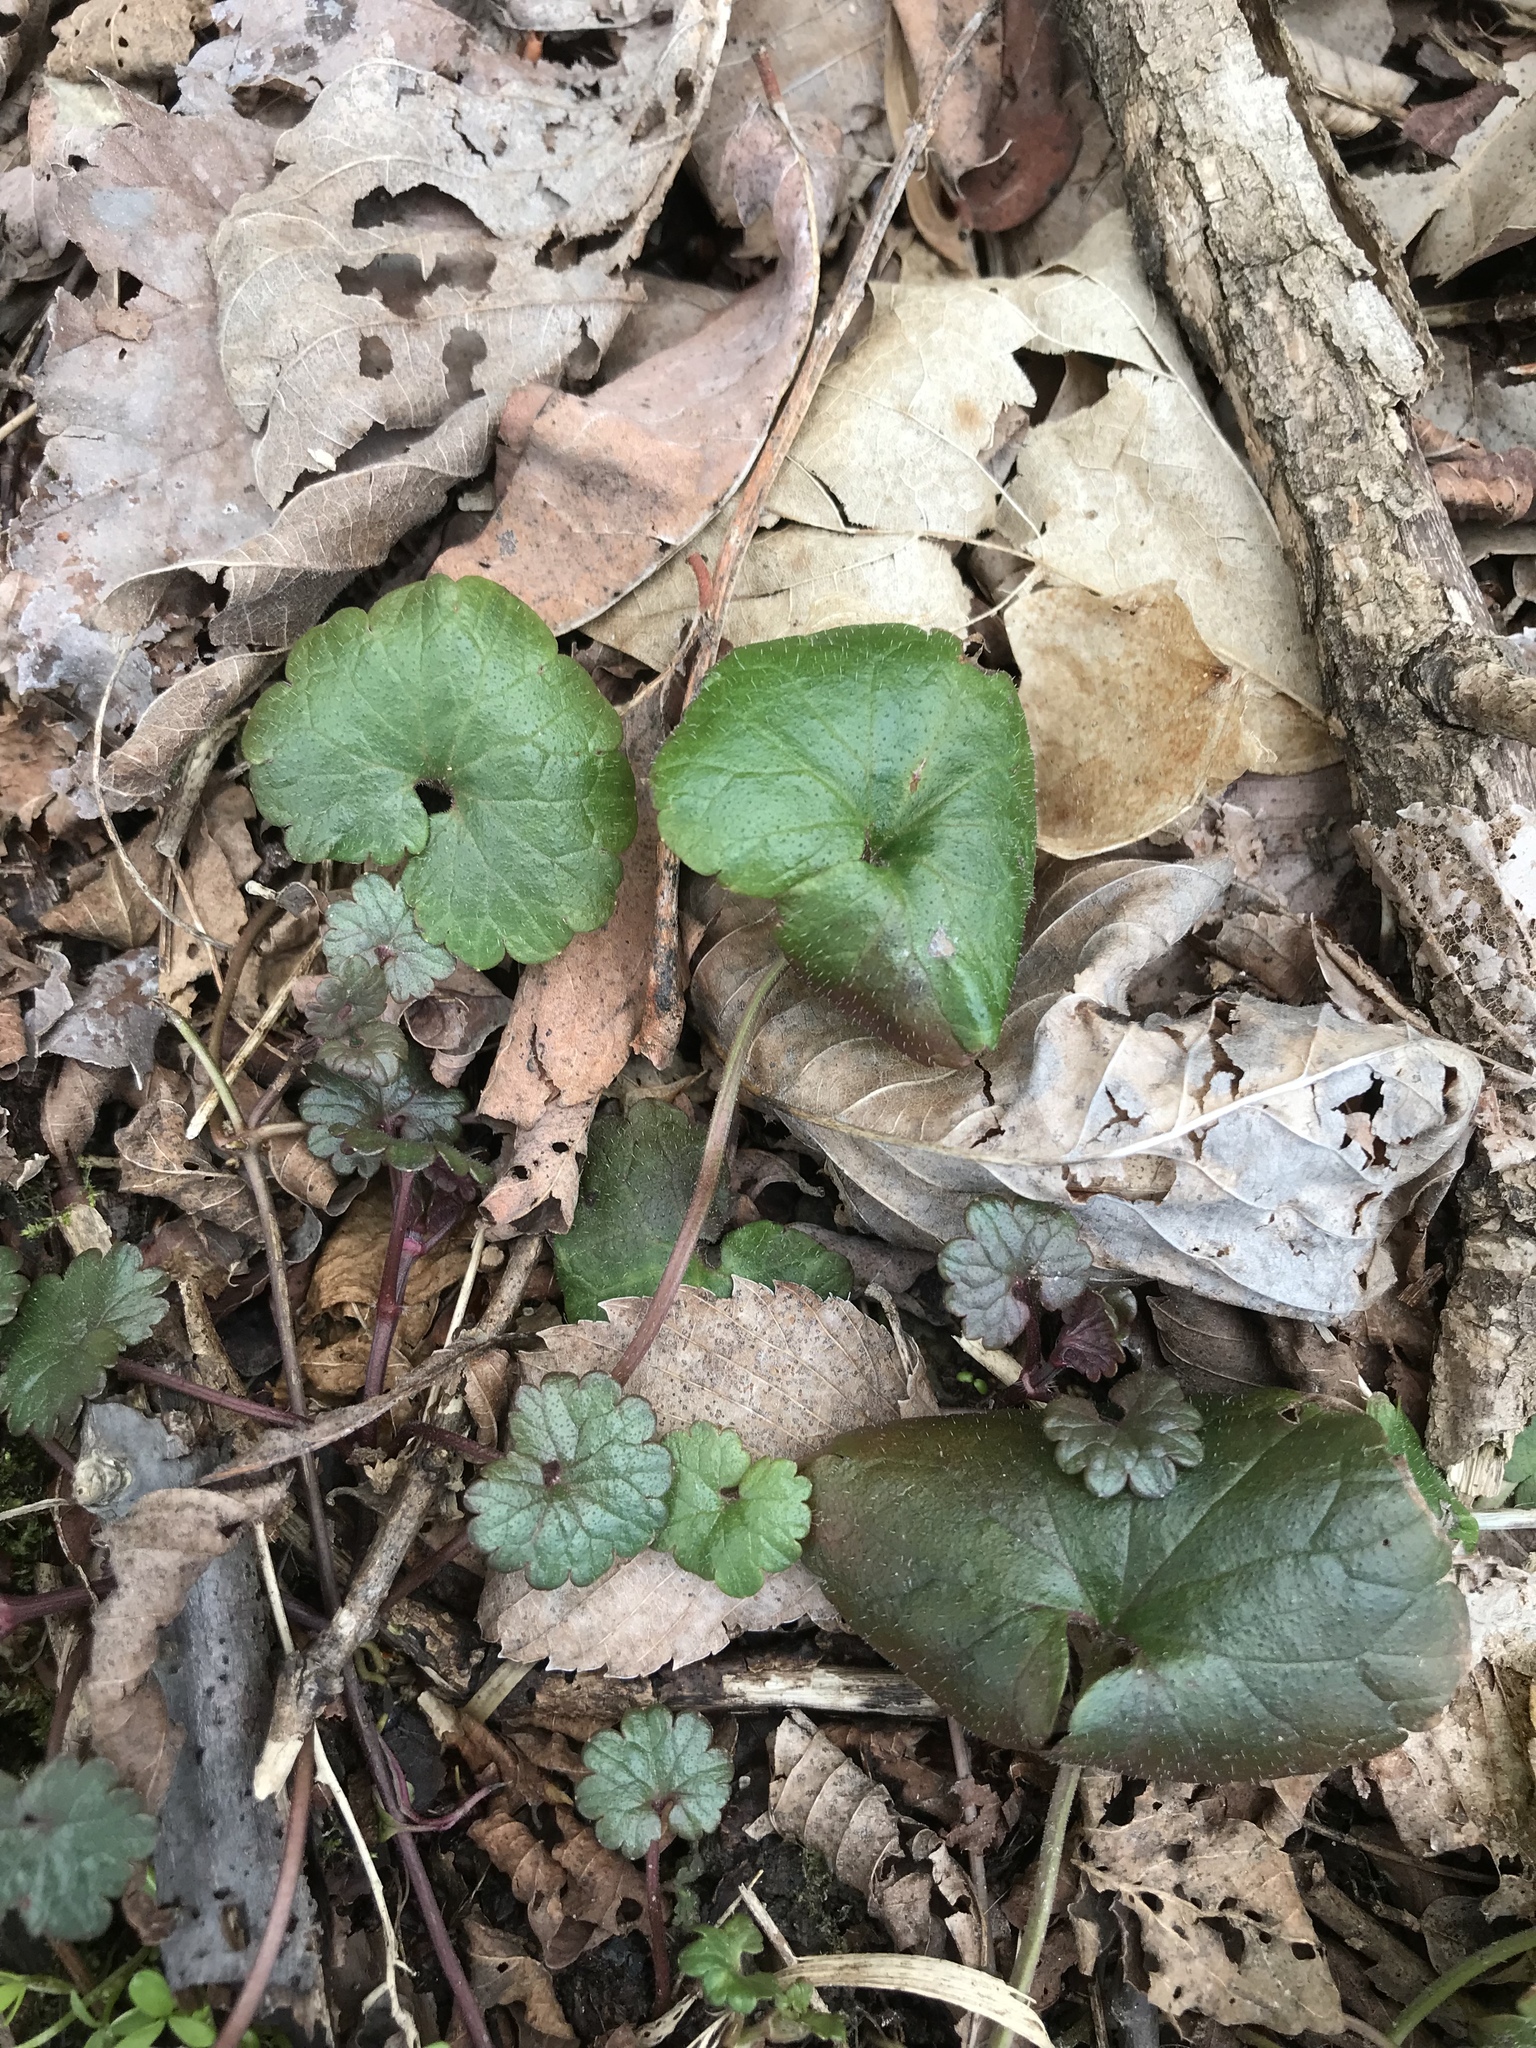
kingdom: Plantae
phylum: Tracheophyta
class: Magnoliopsida
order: Lamiales
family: Lamiaceae
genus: Glechoma
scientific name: Glechoma hederacea
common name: Ground ivy
